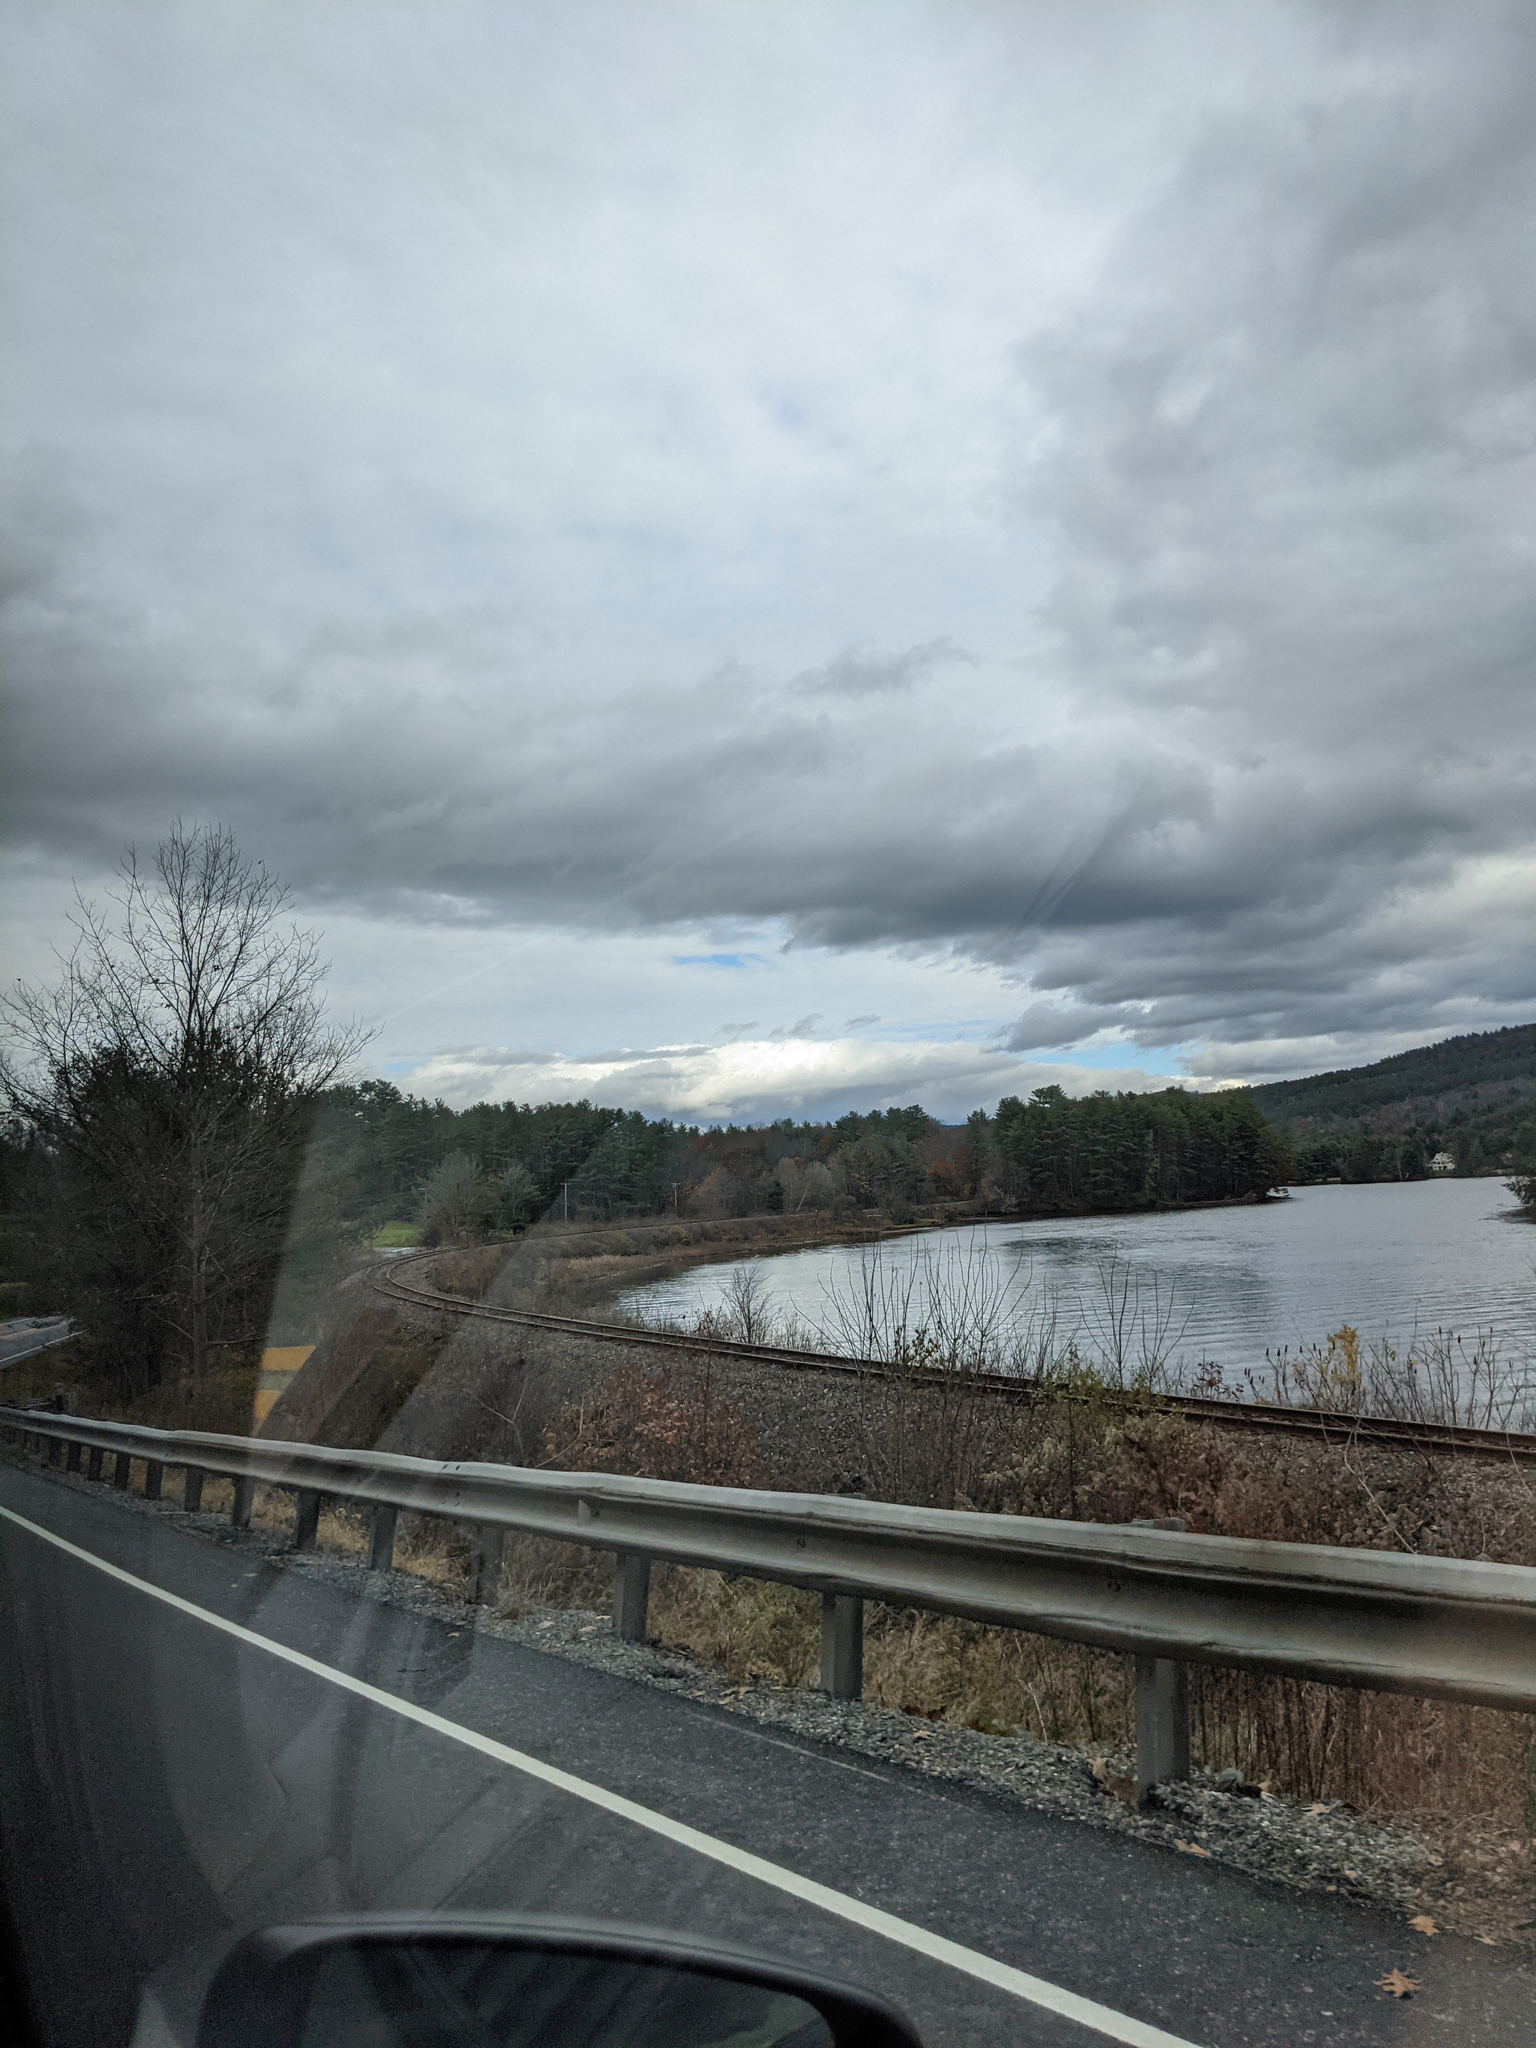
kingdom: Plantae
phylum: Tracheophyta
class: Pinopsida
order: Pinales
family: Pinaceae
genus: Pinus
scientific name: Pinus strobus
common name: Weymouth pine
